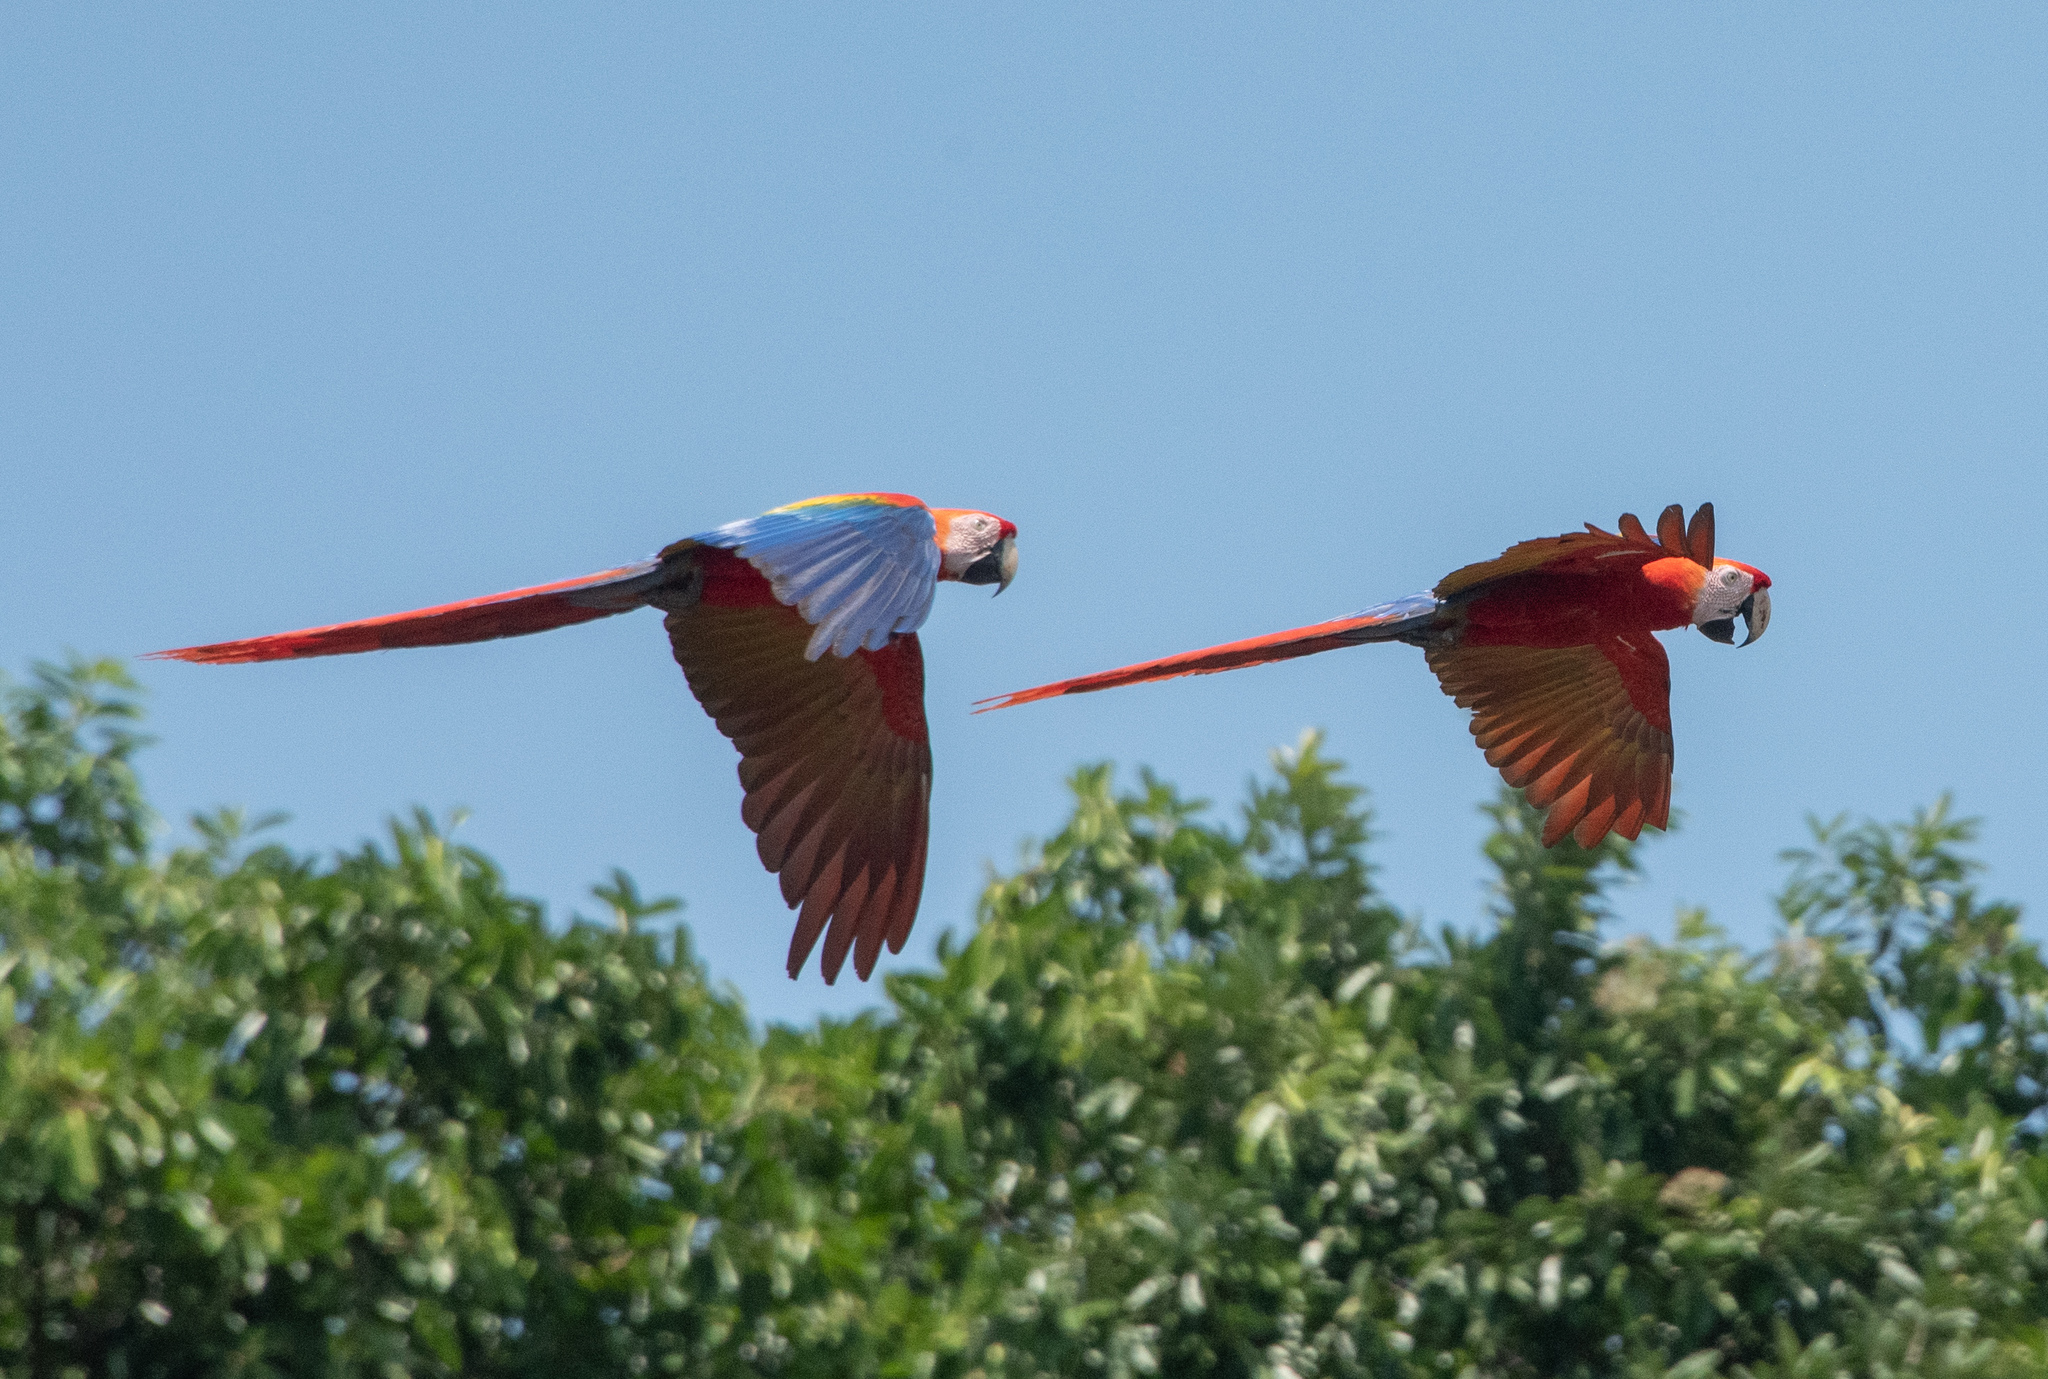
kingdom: Animalia
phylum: Chordata
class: Aves
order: Psittaciformes
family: Psittacidae
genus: Ara
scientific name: Ara macao
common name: Scarlet macaw
